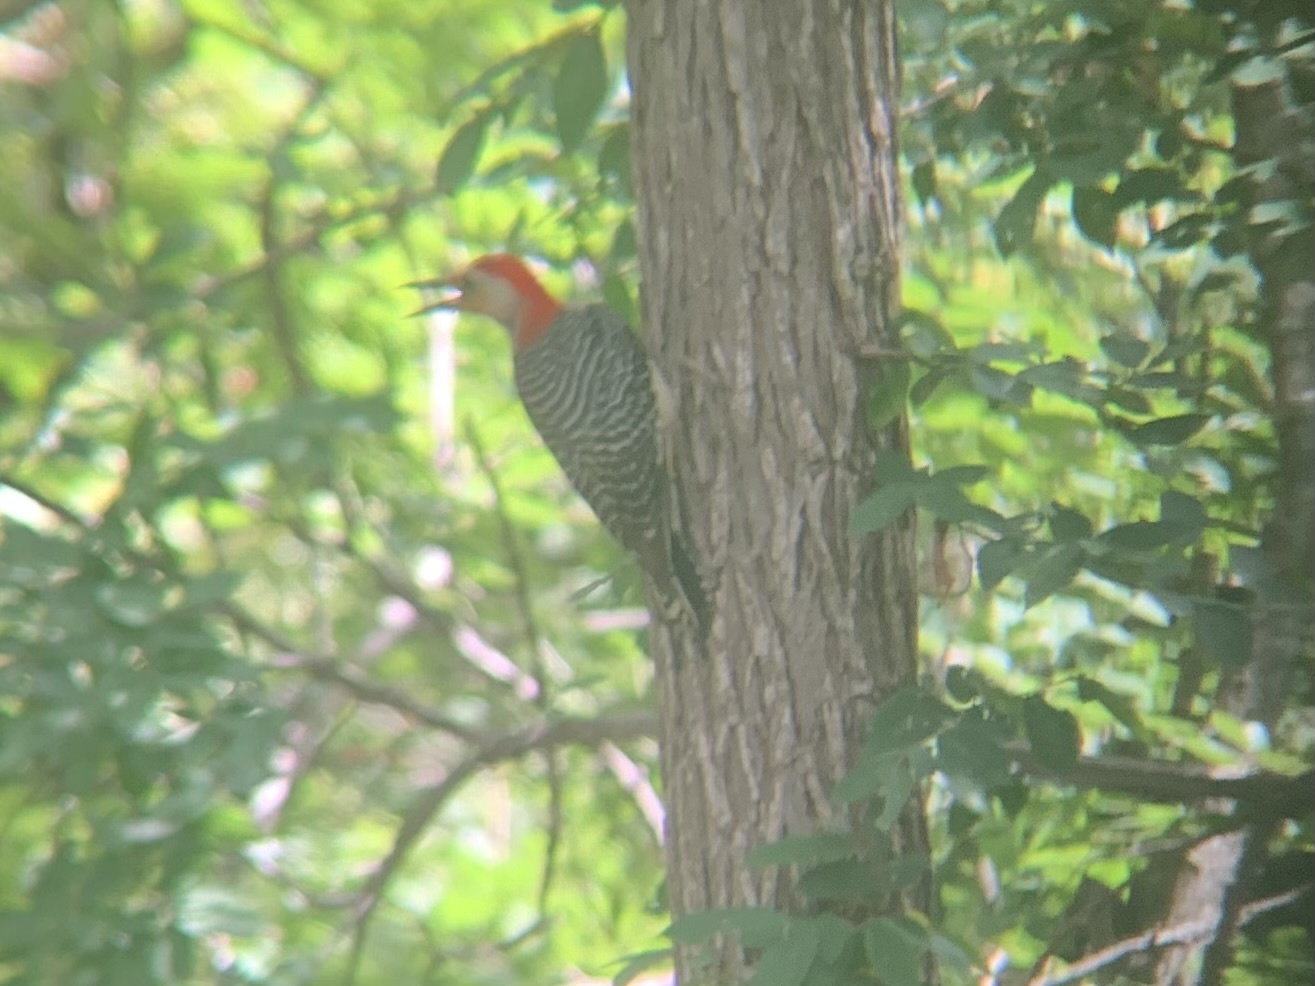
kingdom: Animalia
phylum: Chordata
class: Aves
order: Piciformes
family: Picidae
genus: Melanerpes
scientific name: Melanerpes carolinus
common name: Red-bellied woodpecker
